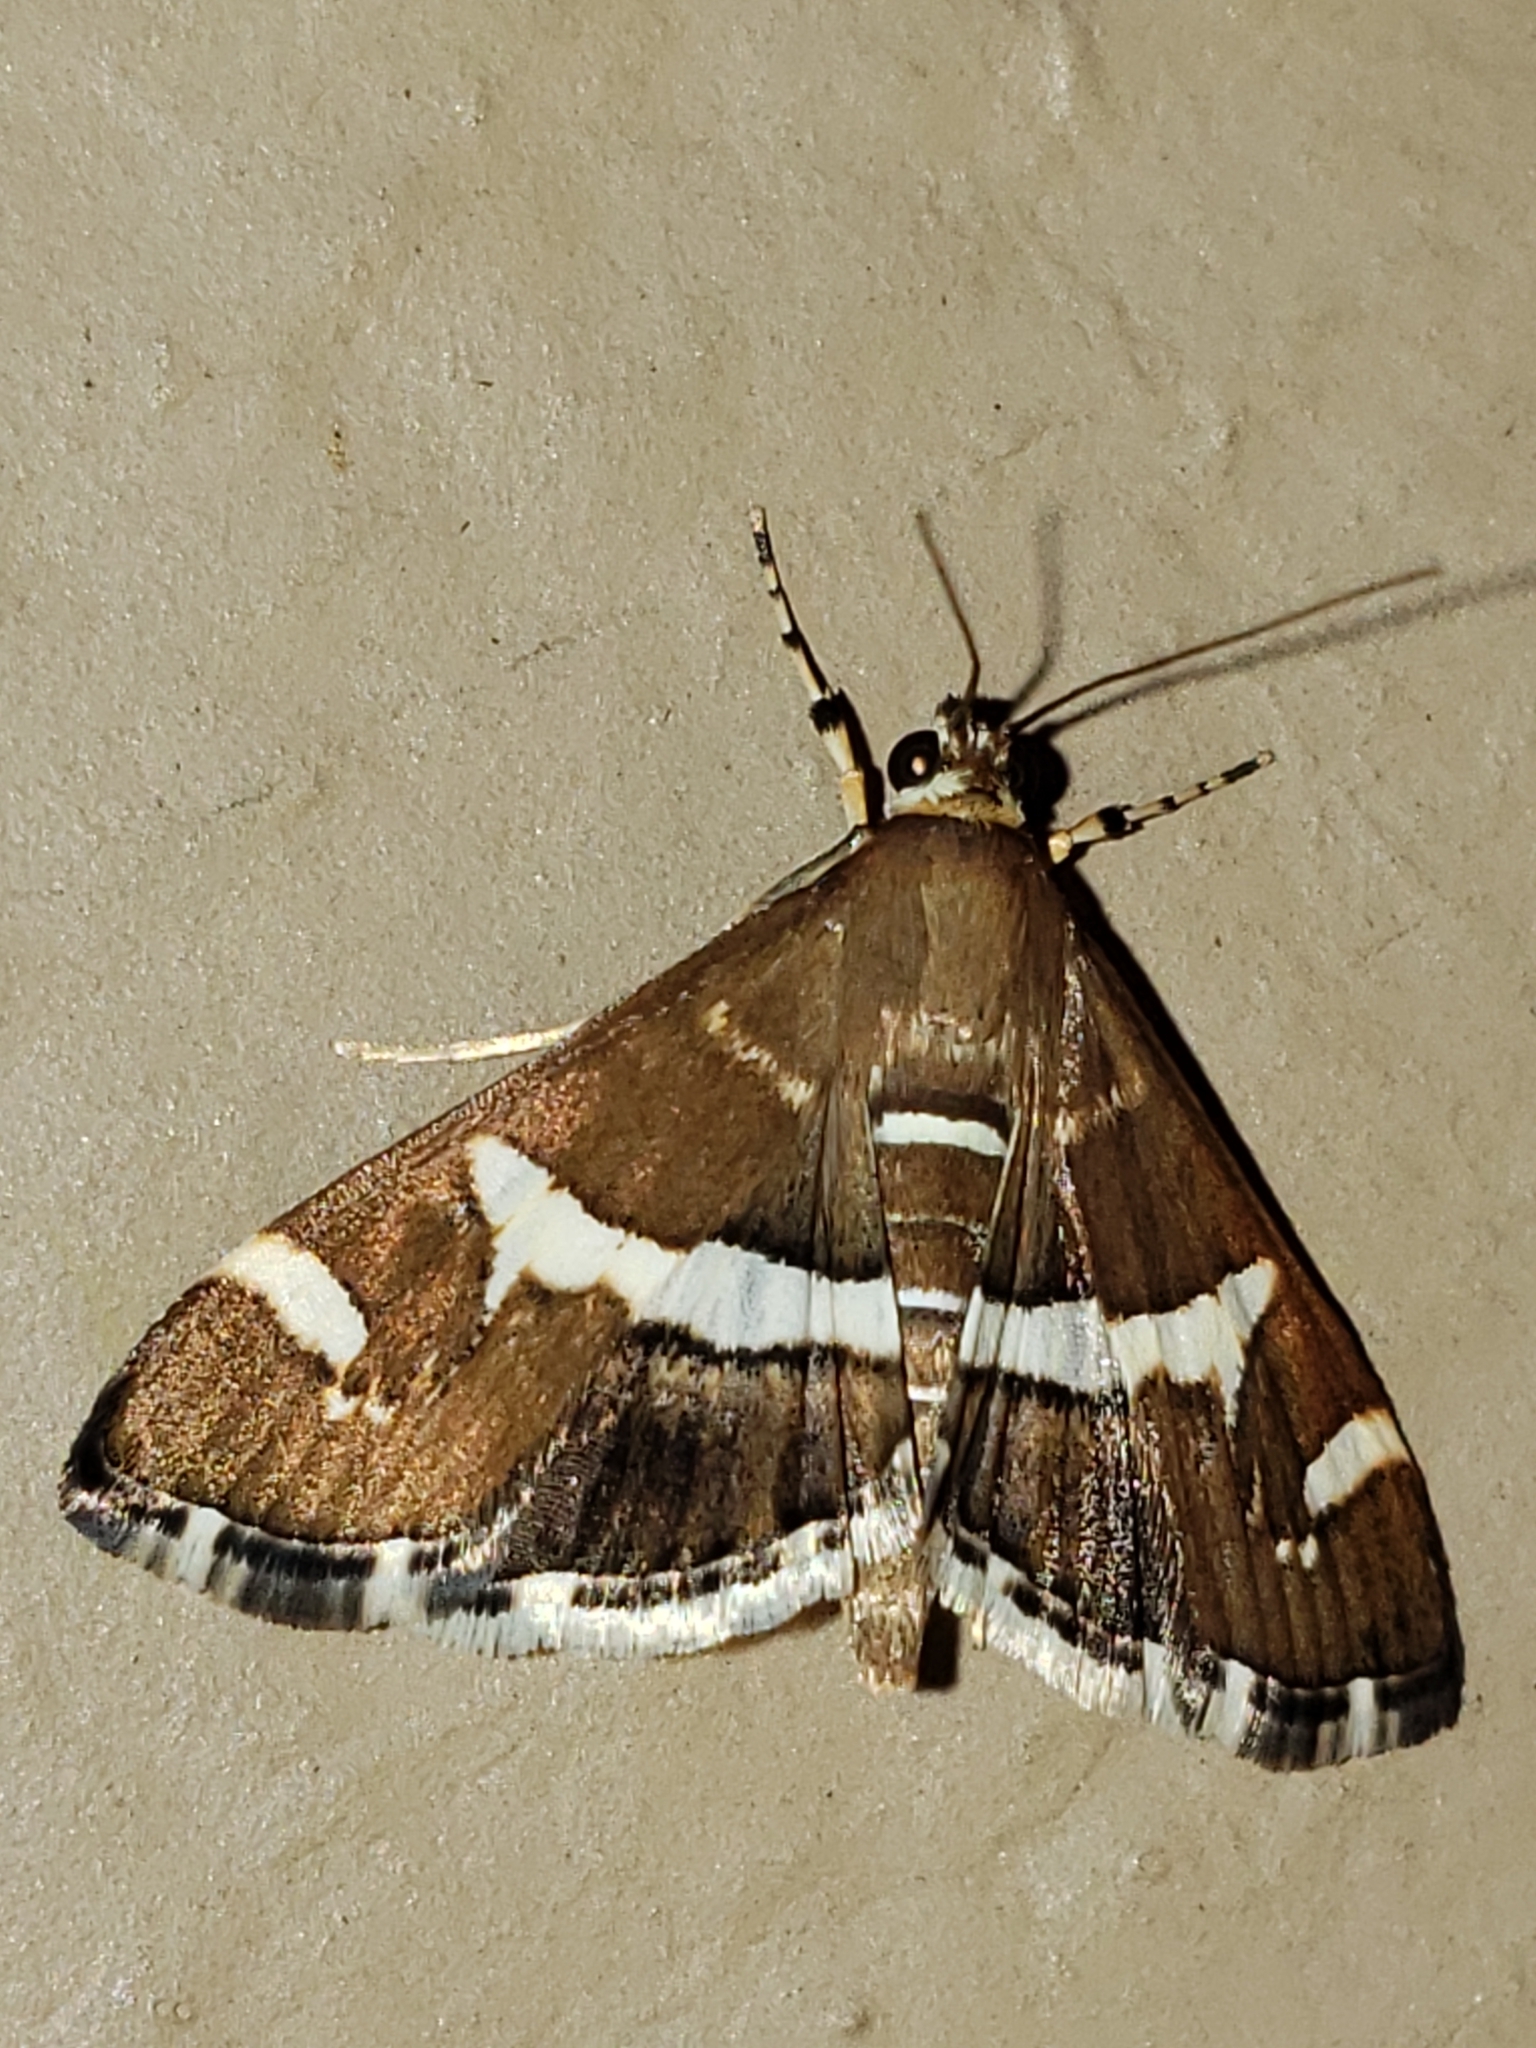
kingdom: Animalia
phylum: Arthropoda
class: Insecta
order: Lepidoptera
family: Crambidae
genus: Spoladea
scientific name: Spoladea recurvalis
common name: Beet webworm moth
